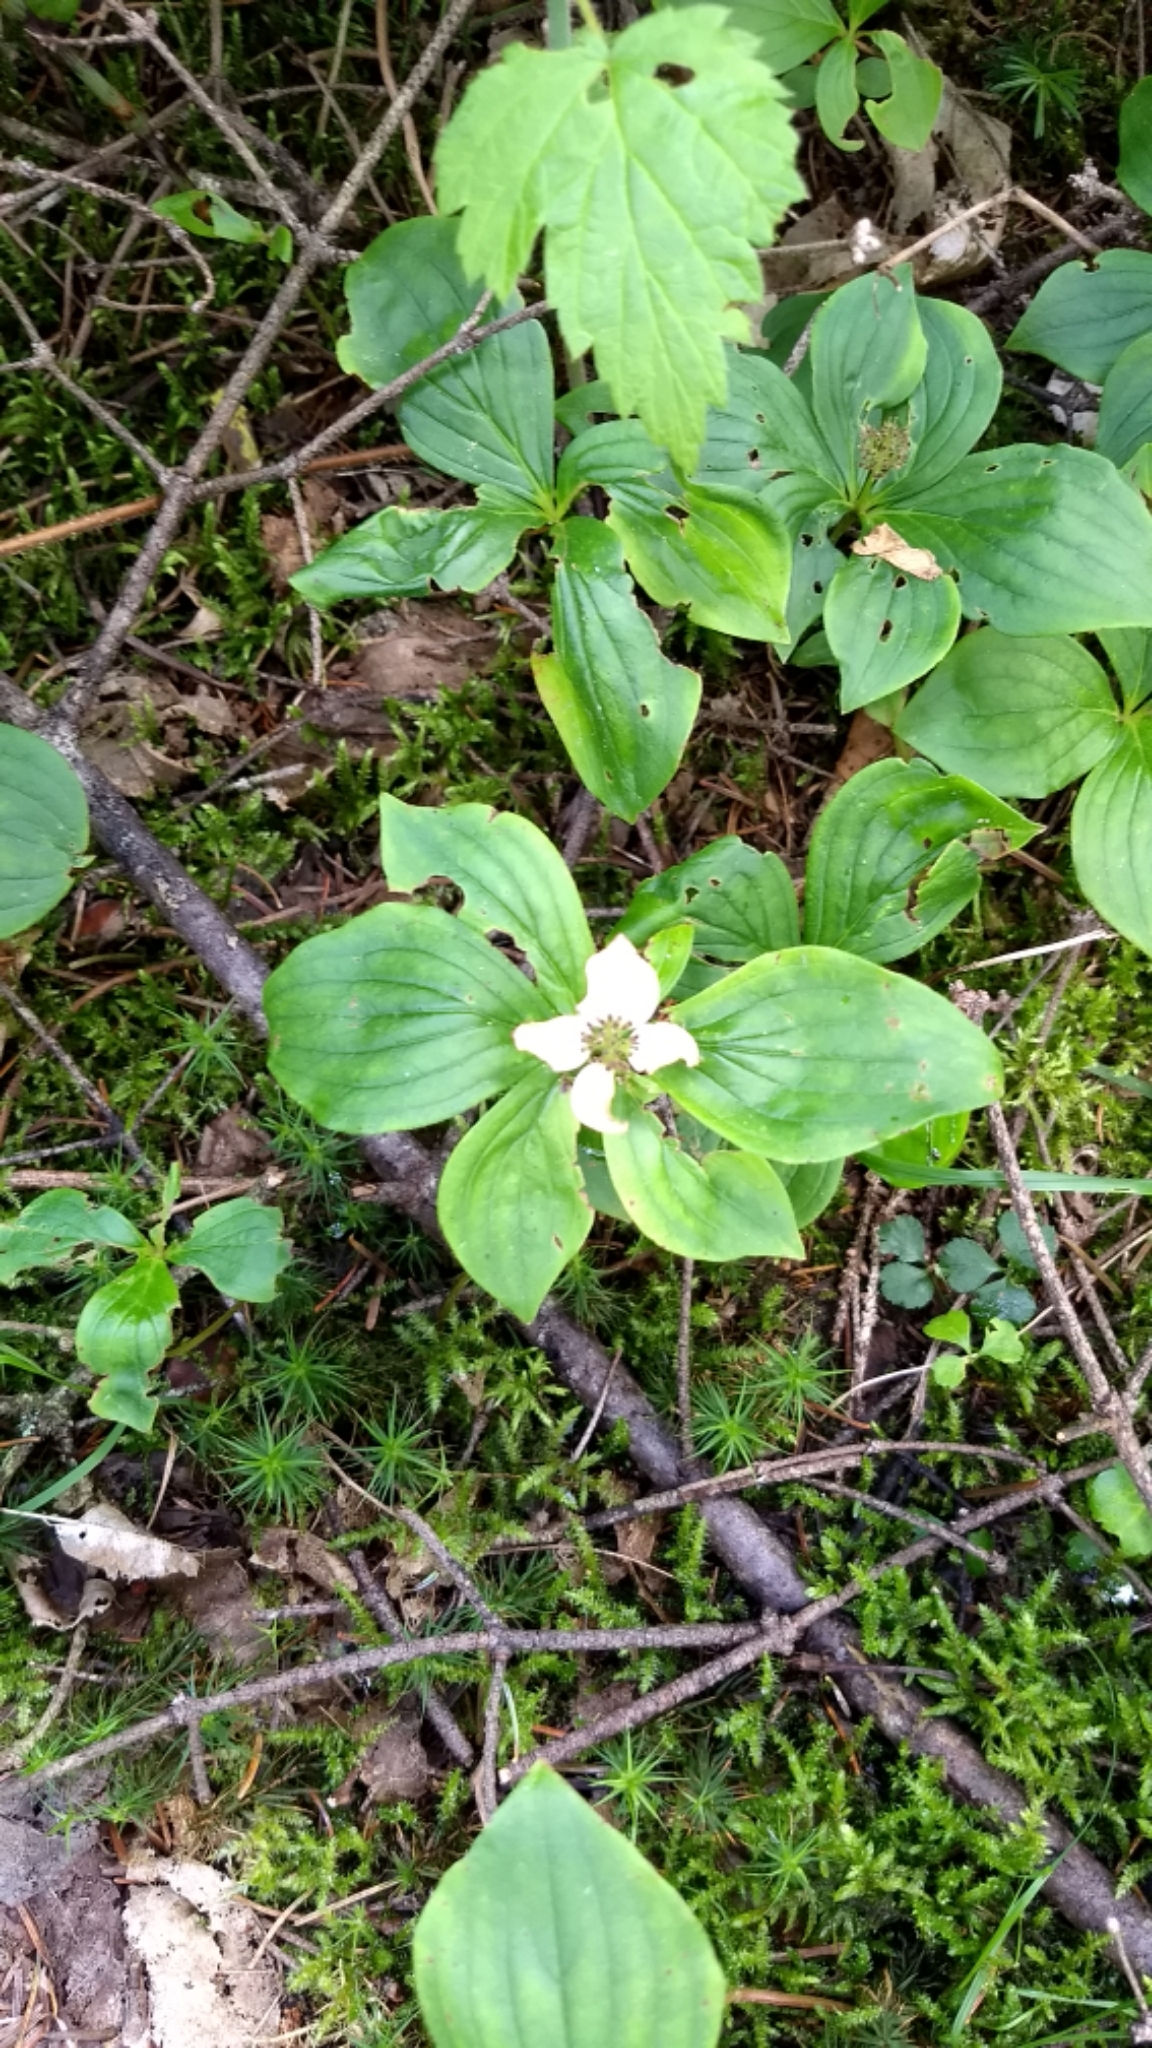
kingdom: Plantae
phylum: Tracheophyta
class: Magnoliopsida
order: Cornales
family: Cornaceae
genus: Cornus
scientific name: Cornus canadensis
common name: Creeping dogwood
